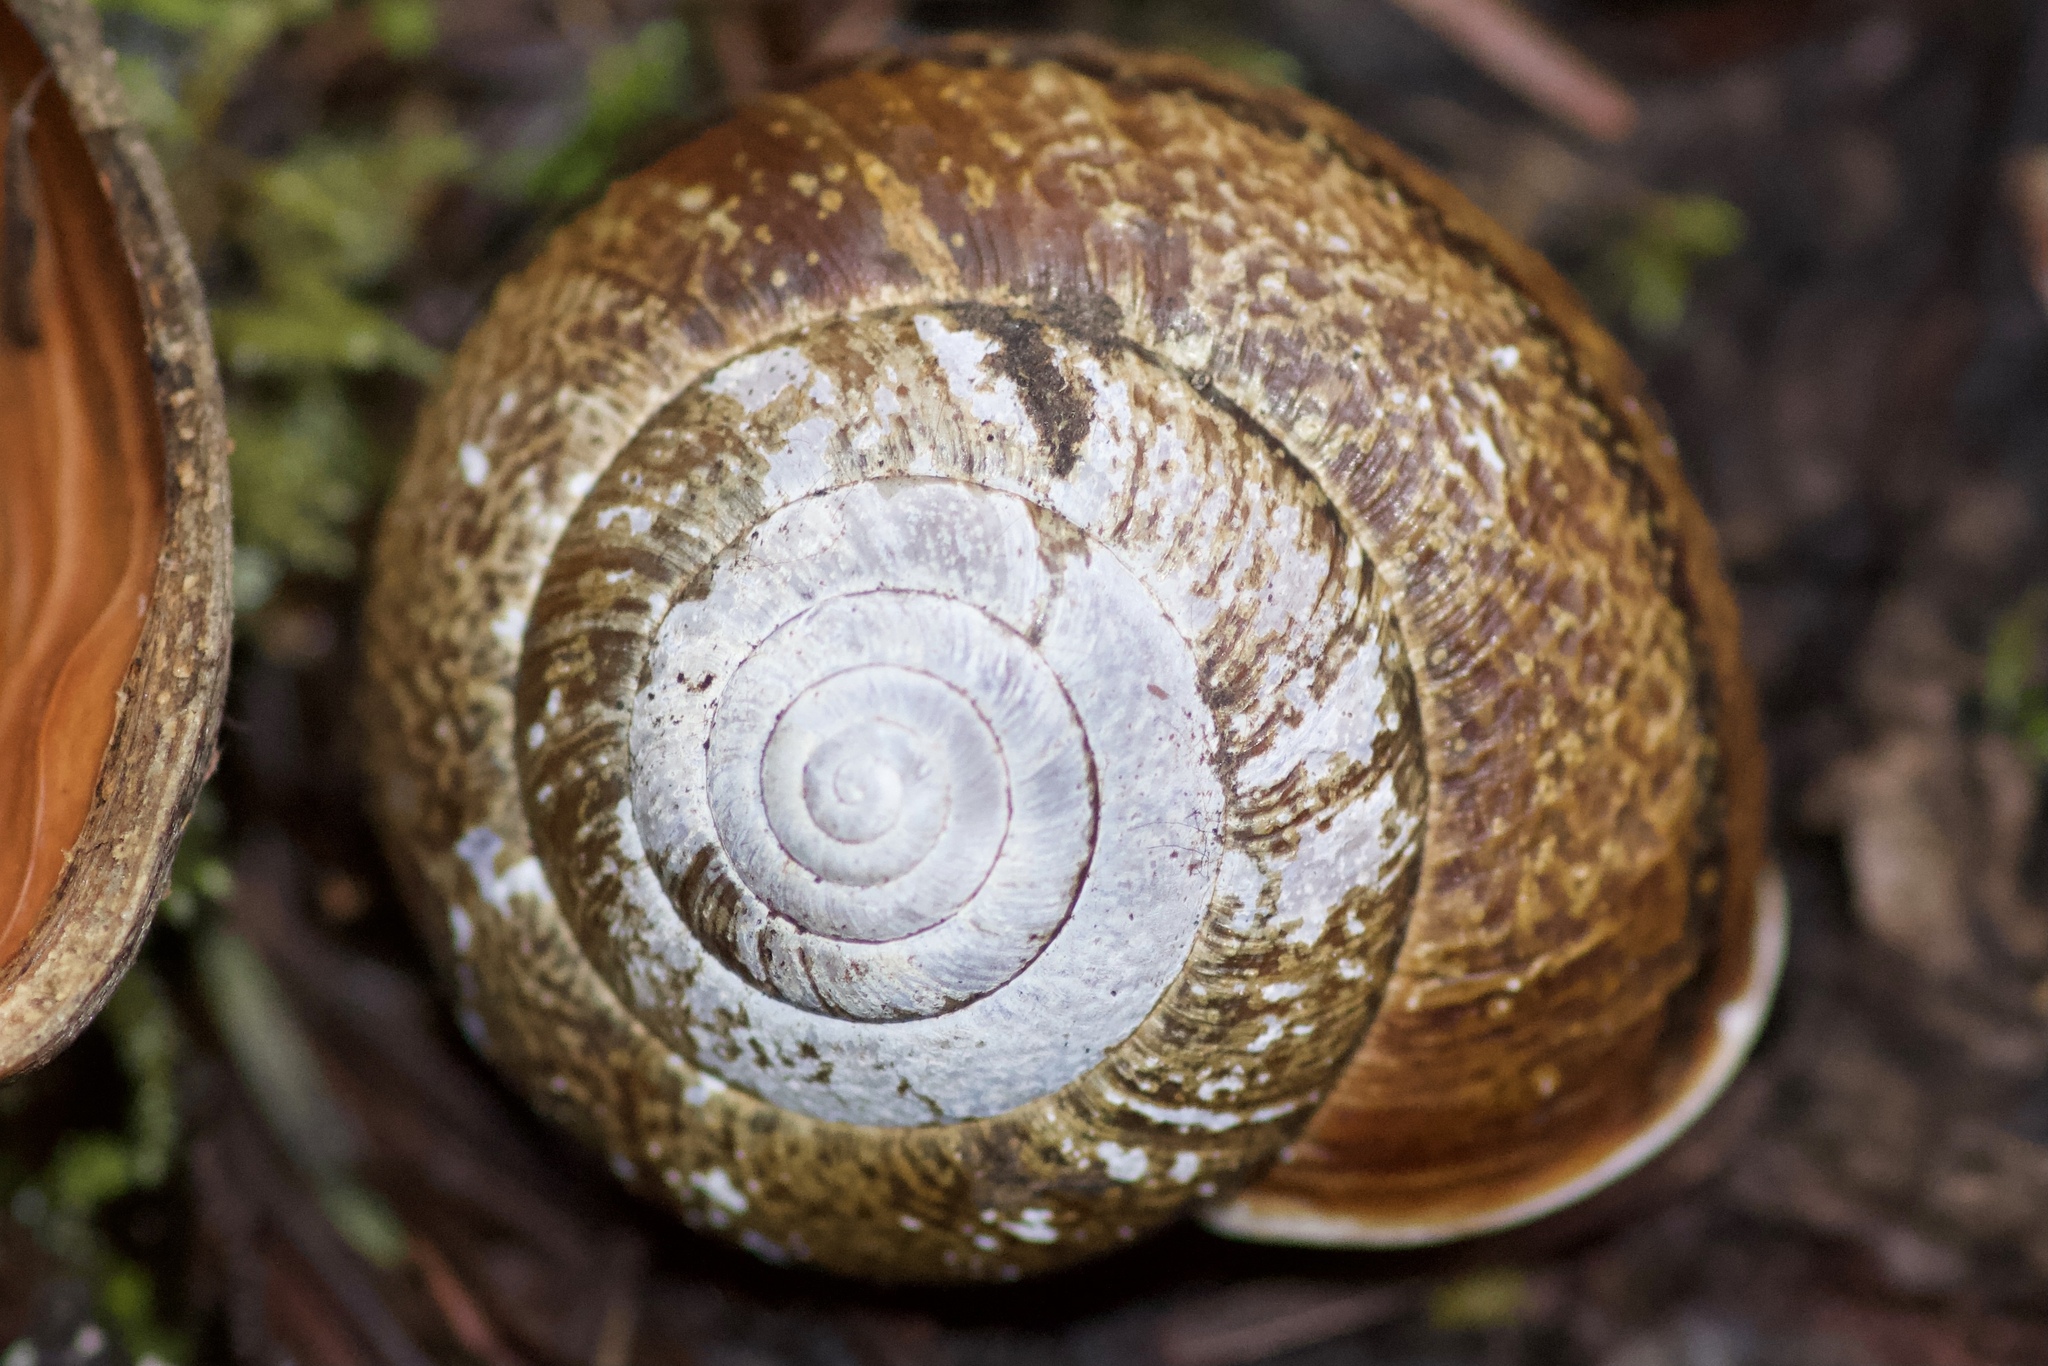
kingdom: Animalia
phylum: Mollusca
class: Gastropoda
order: Stylommatophora
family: Xanthonychidae
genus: Helminthoglypta
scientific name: Helminthoglypta arrosa
